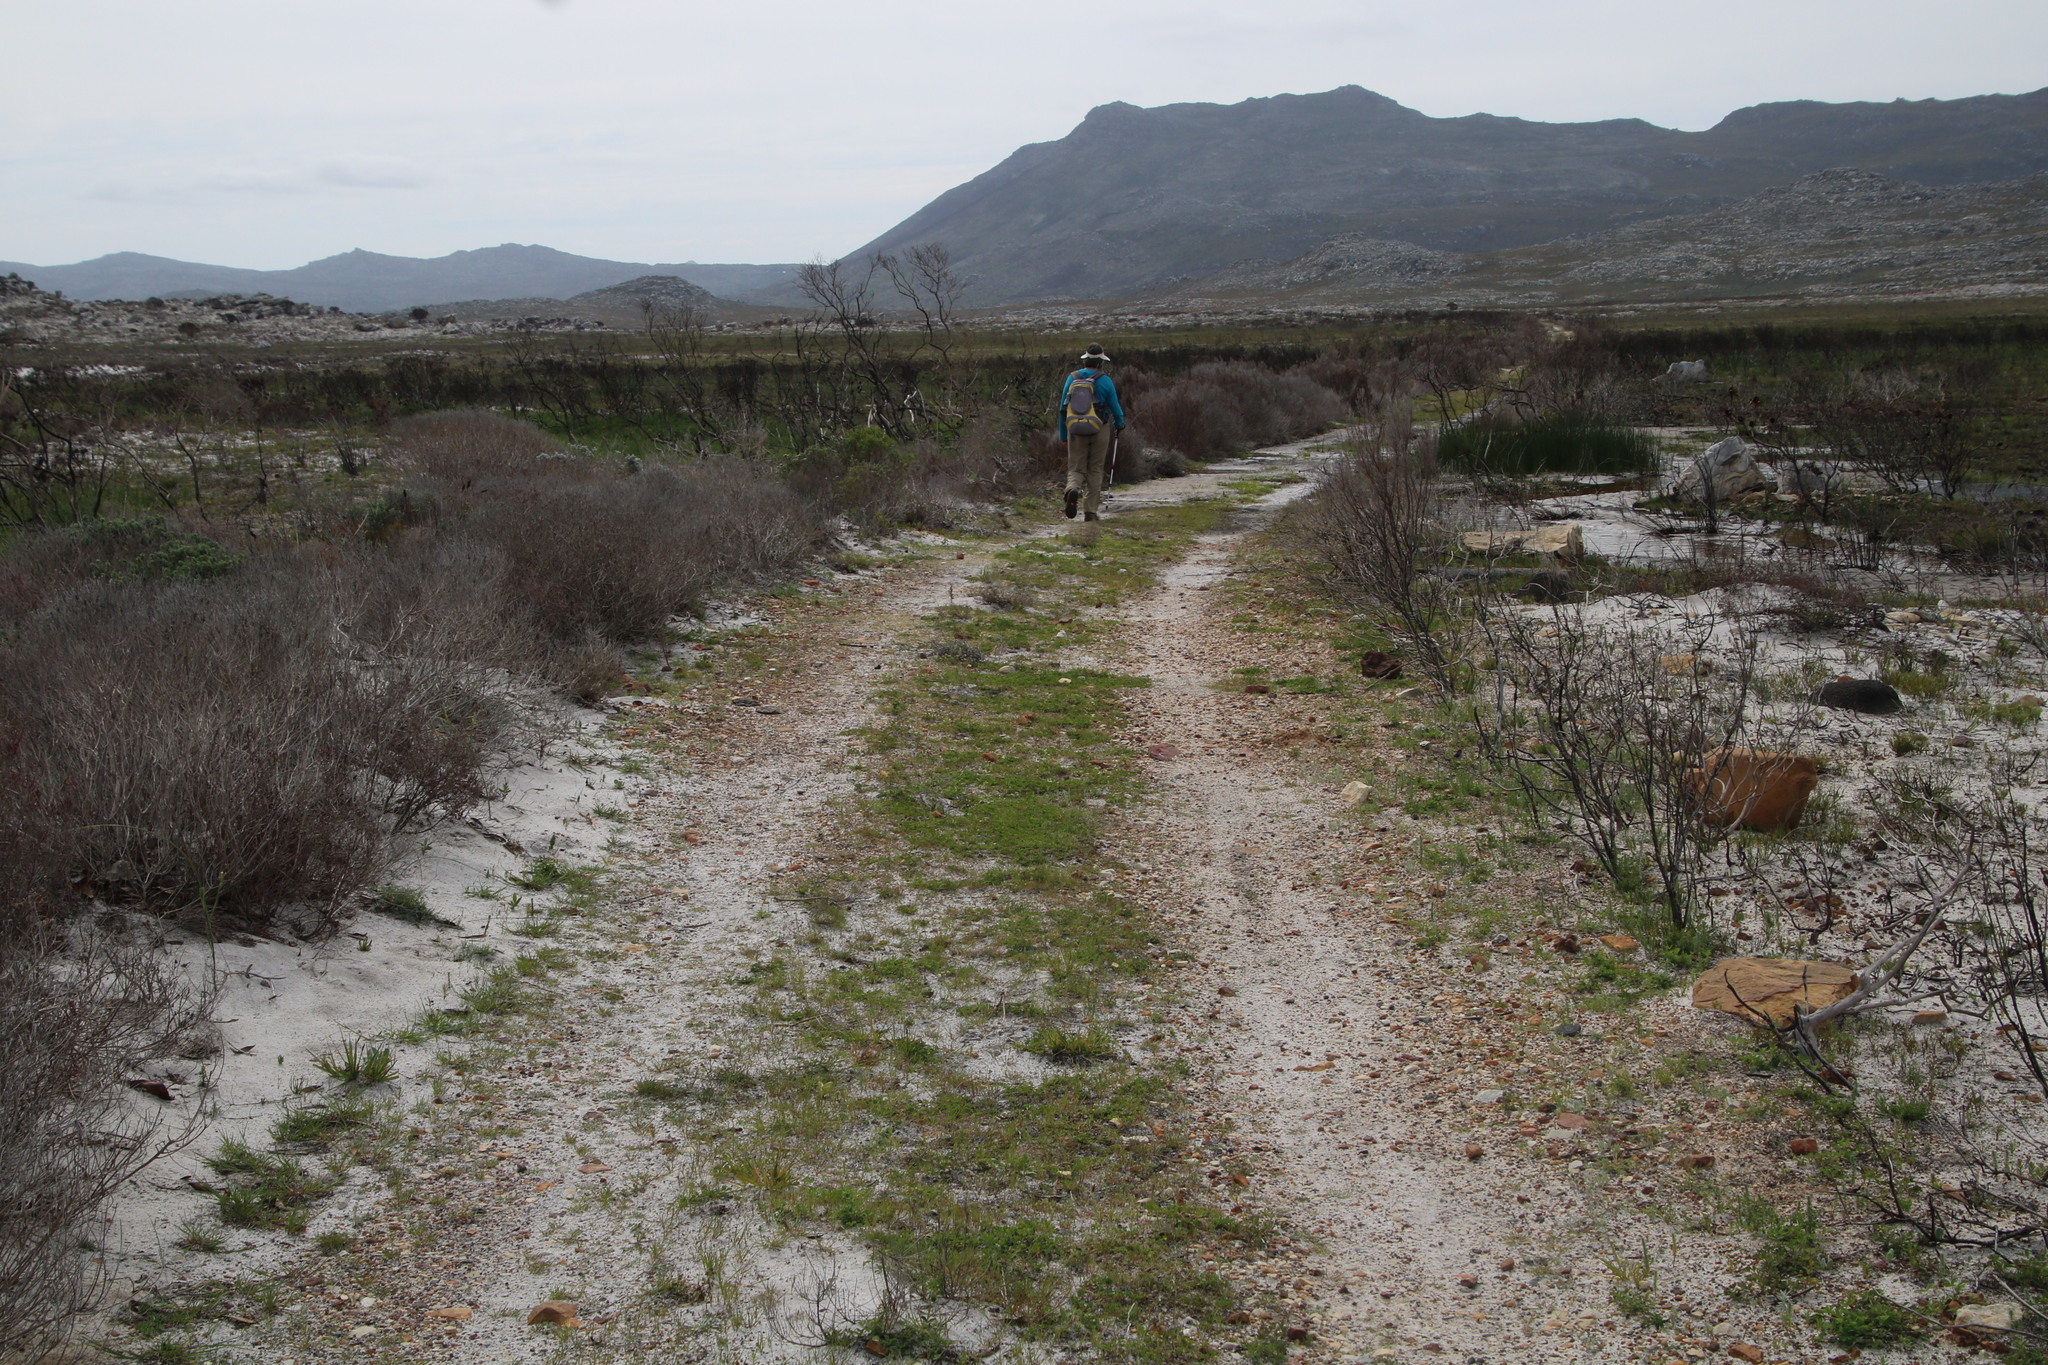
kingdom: Plantae
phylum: Tracheophyta
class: Magnoliopsida
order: Fabales
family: Fabaceae
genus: Melilotus
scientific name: Melilotus indicus
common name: Small melilot
